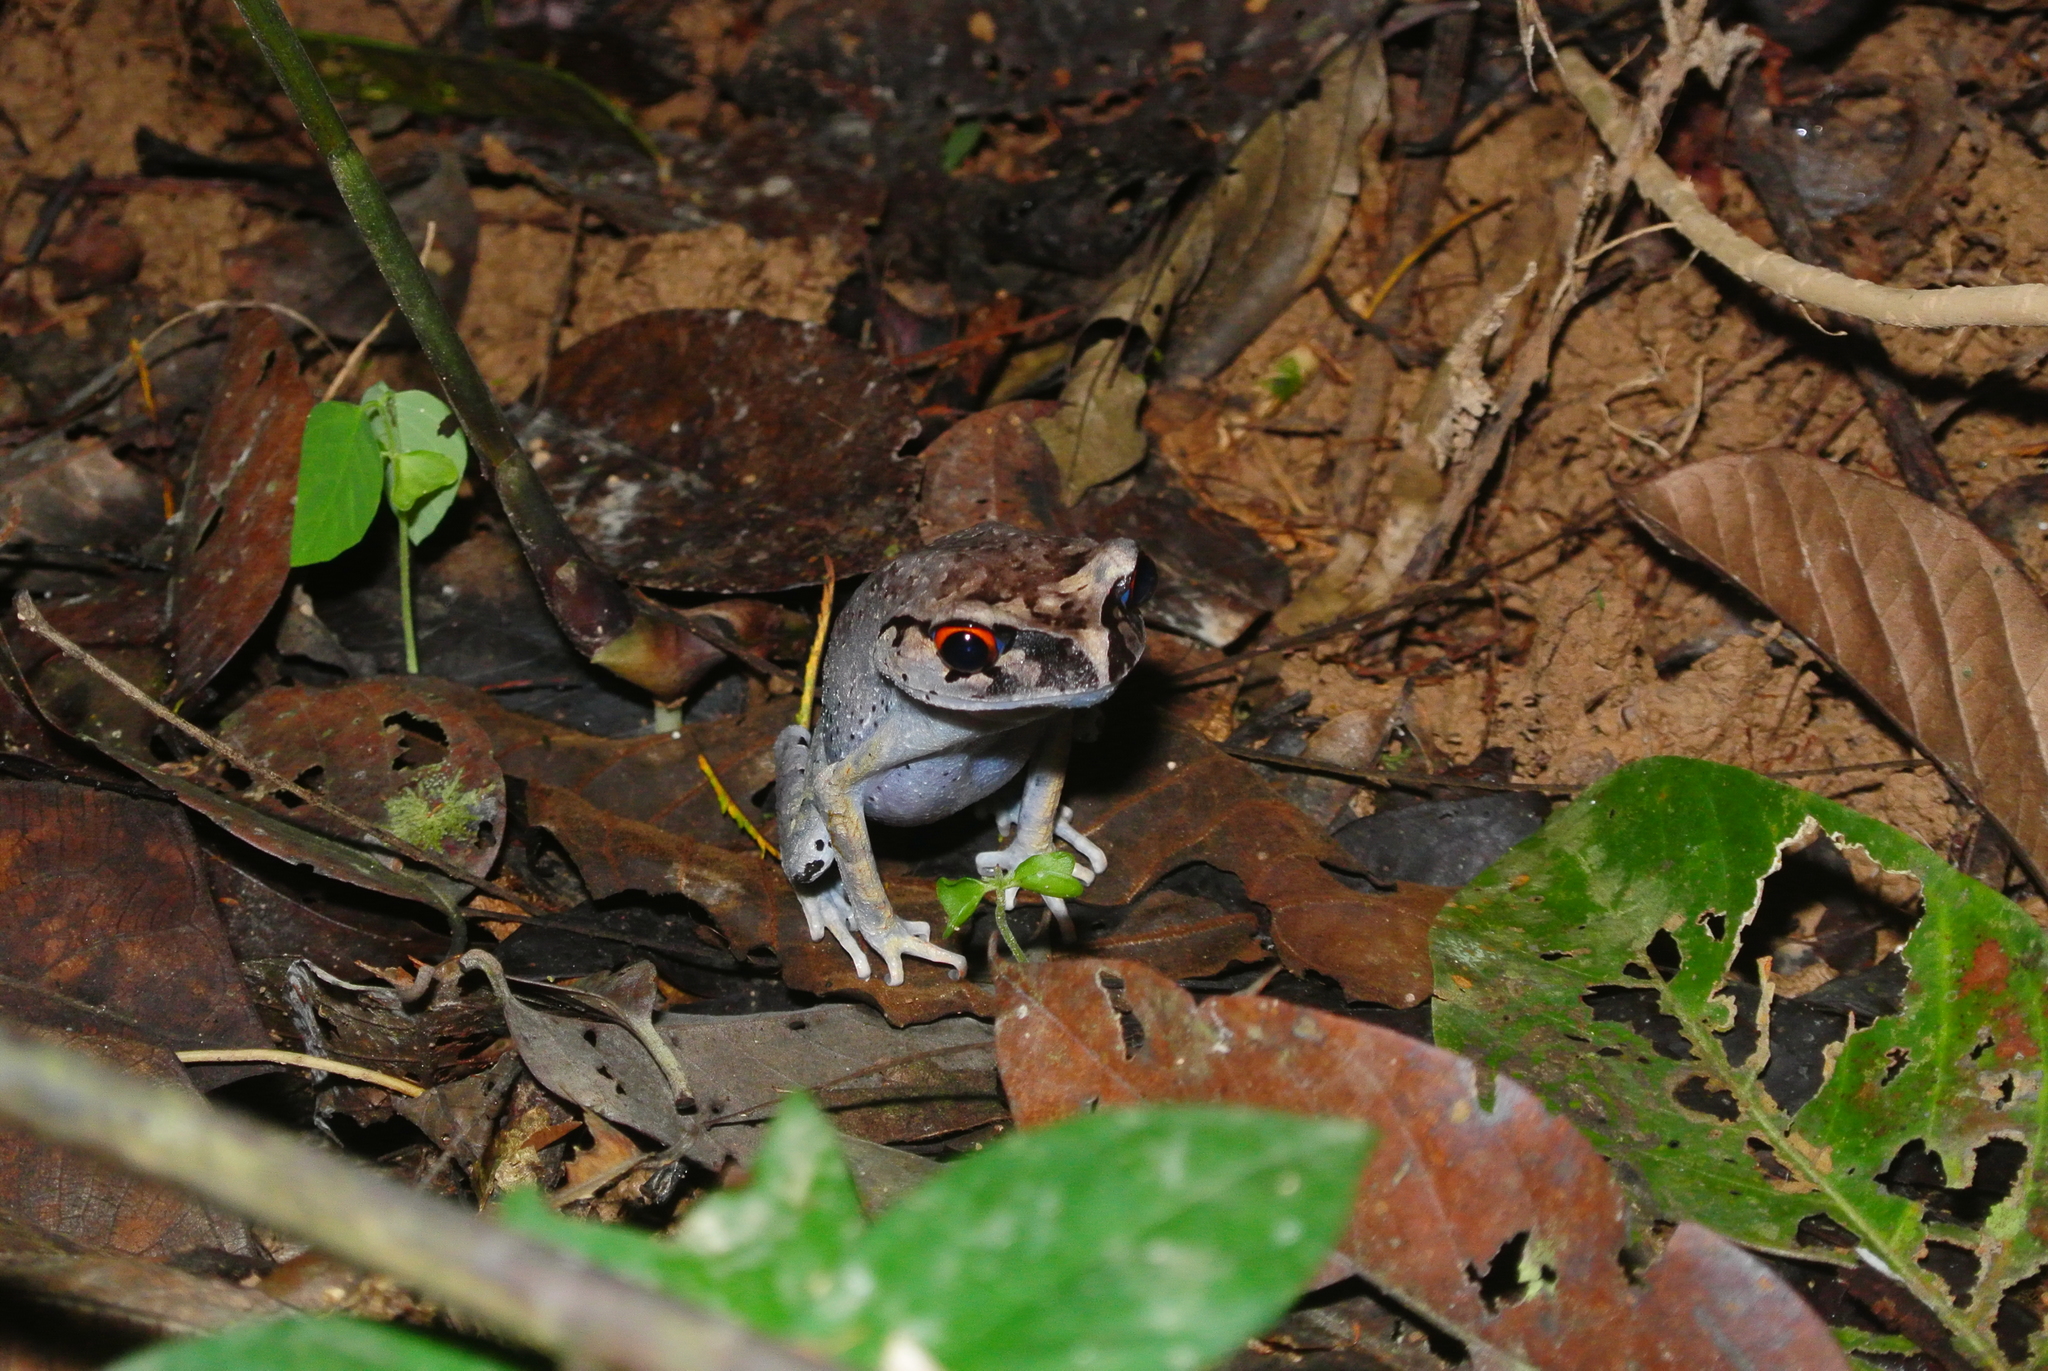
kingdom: Animalia
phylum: Chordata
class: Amphibia
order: Anura
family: Megophryidae
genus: Leptobrachium
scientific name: Leptobrachium hendricksoni
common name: Spotted litter frog
